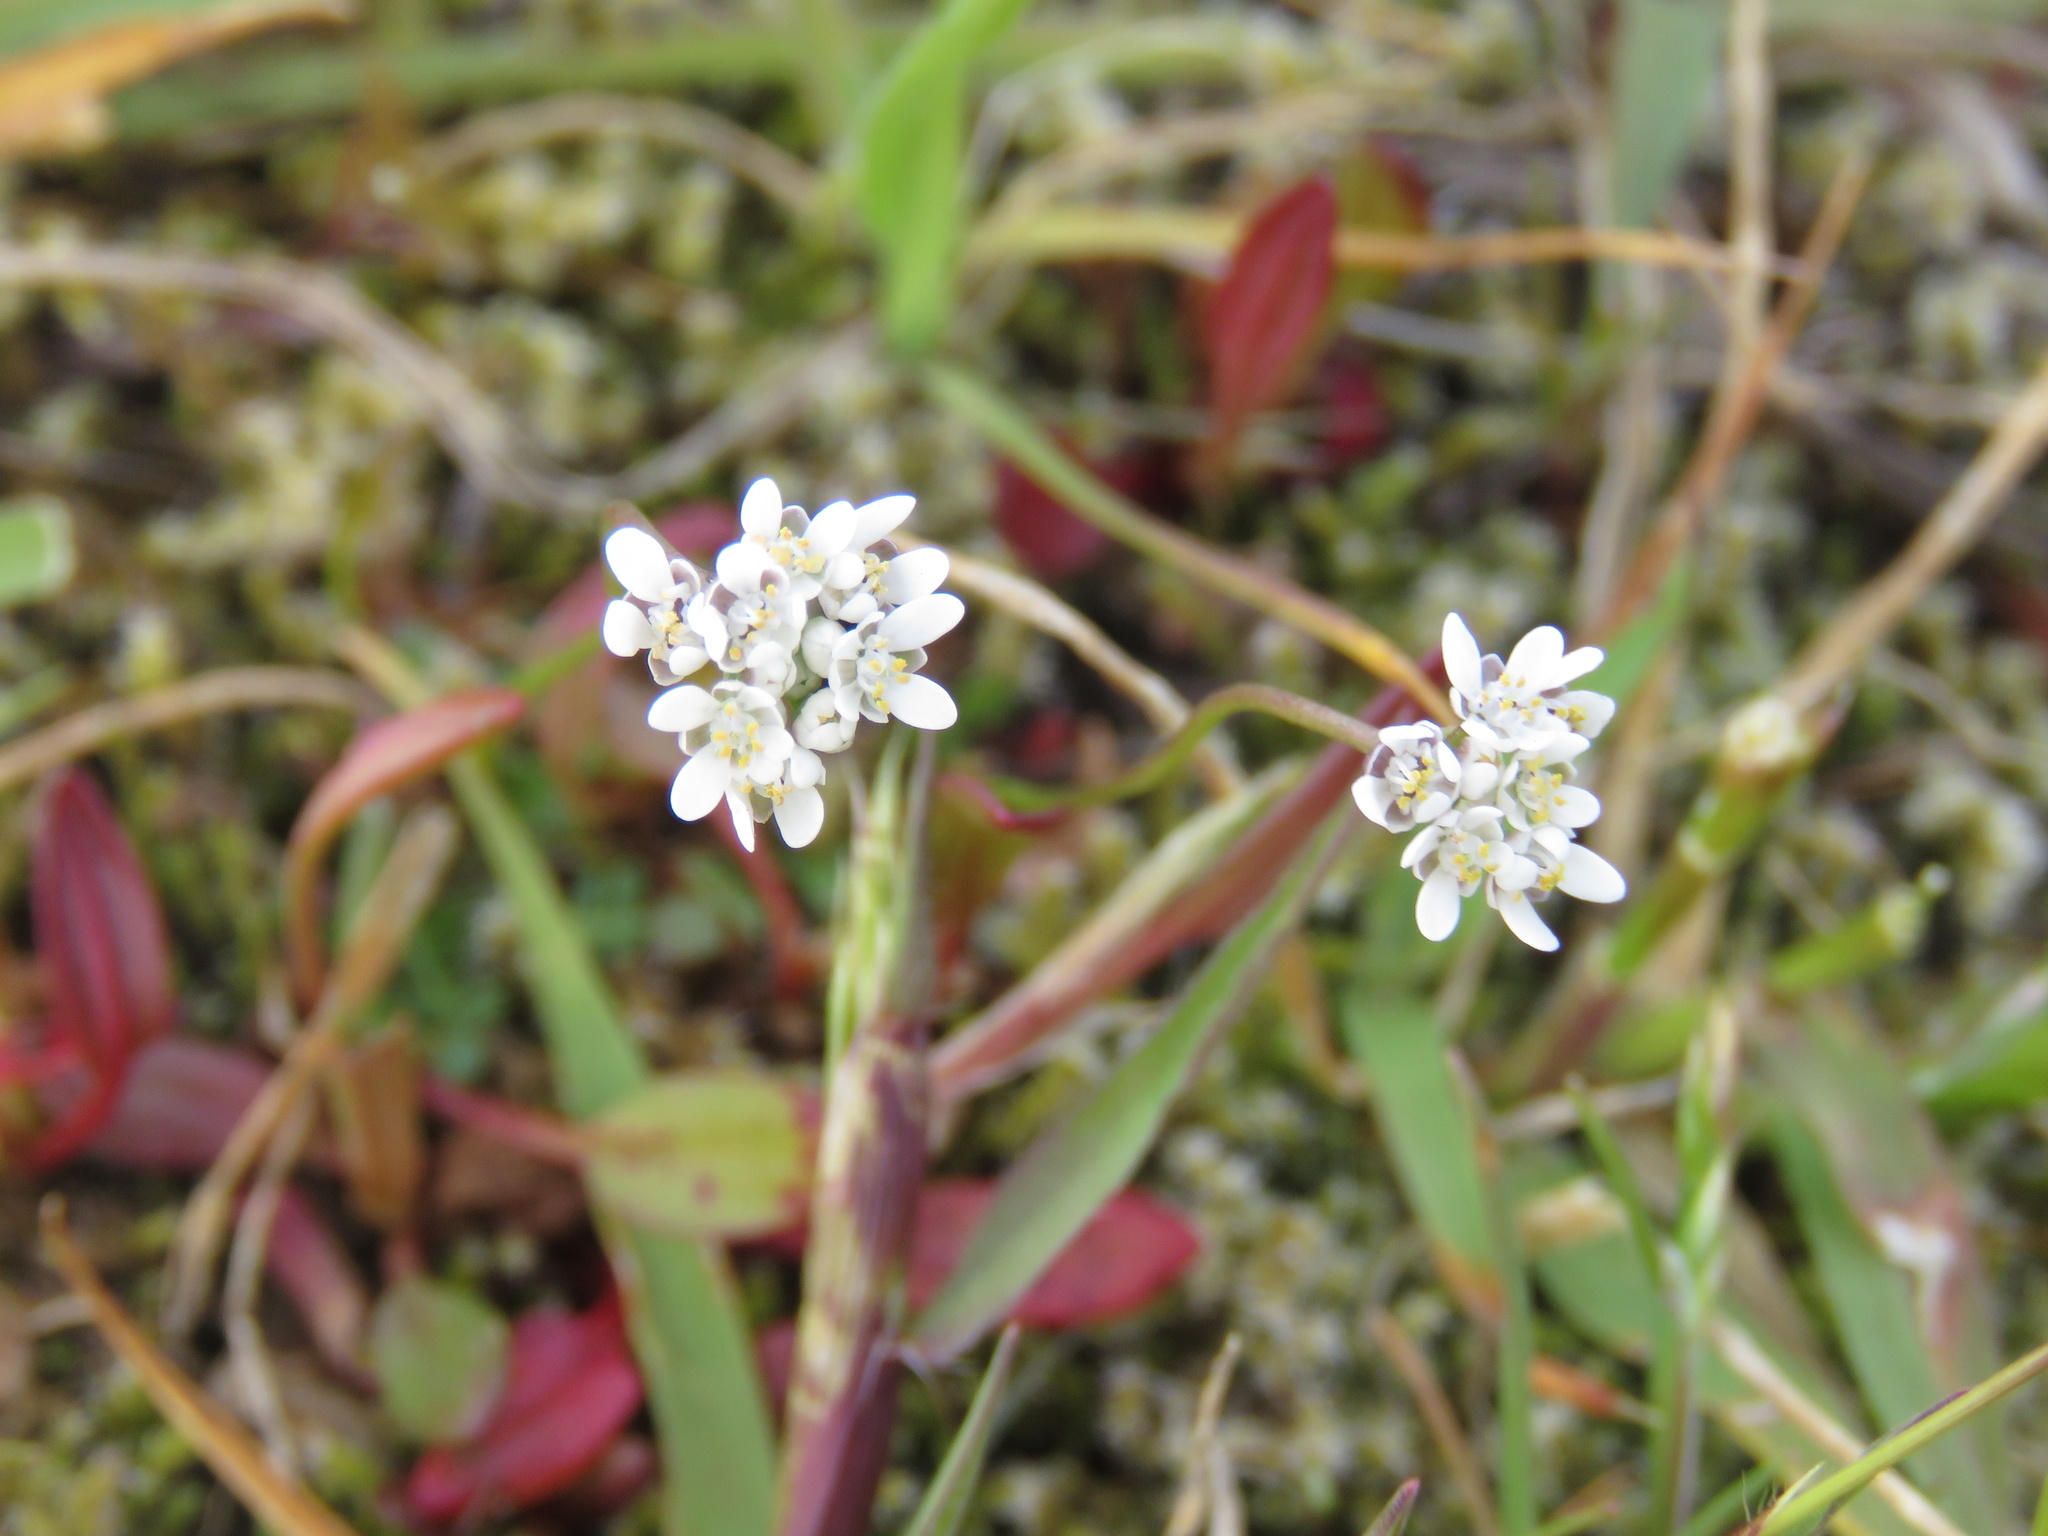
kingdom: Plantae
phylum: Tracheophyta
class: Magnoliopsida
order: Brassicales
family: Brassicaceae
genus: Teesdalia
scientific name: Teesdalia nudicaulis
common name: Shepherd's cress
